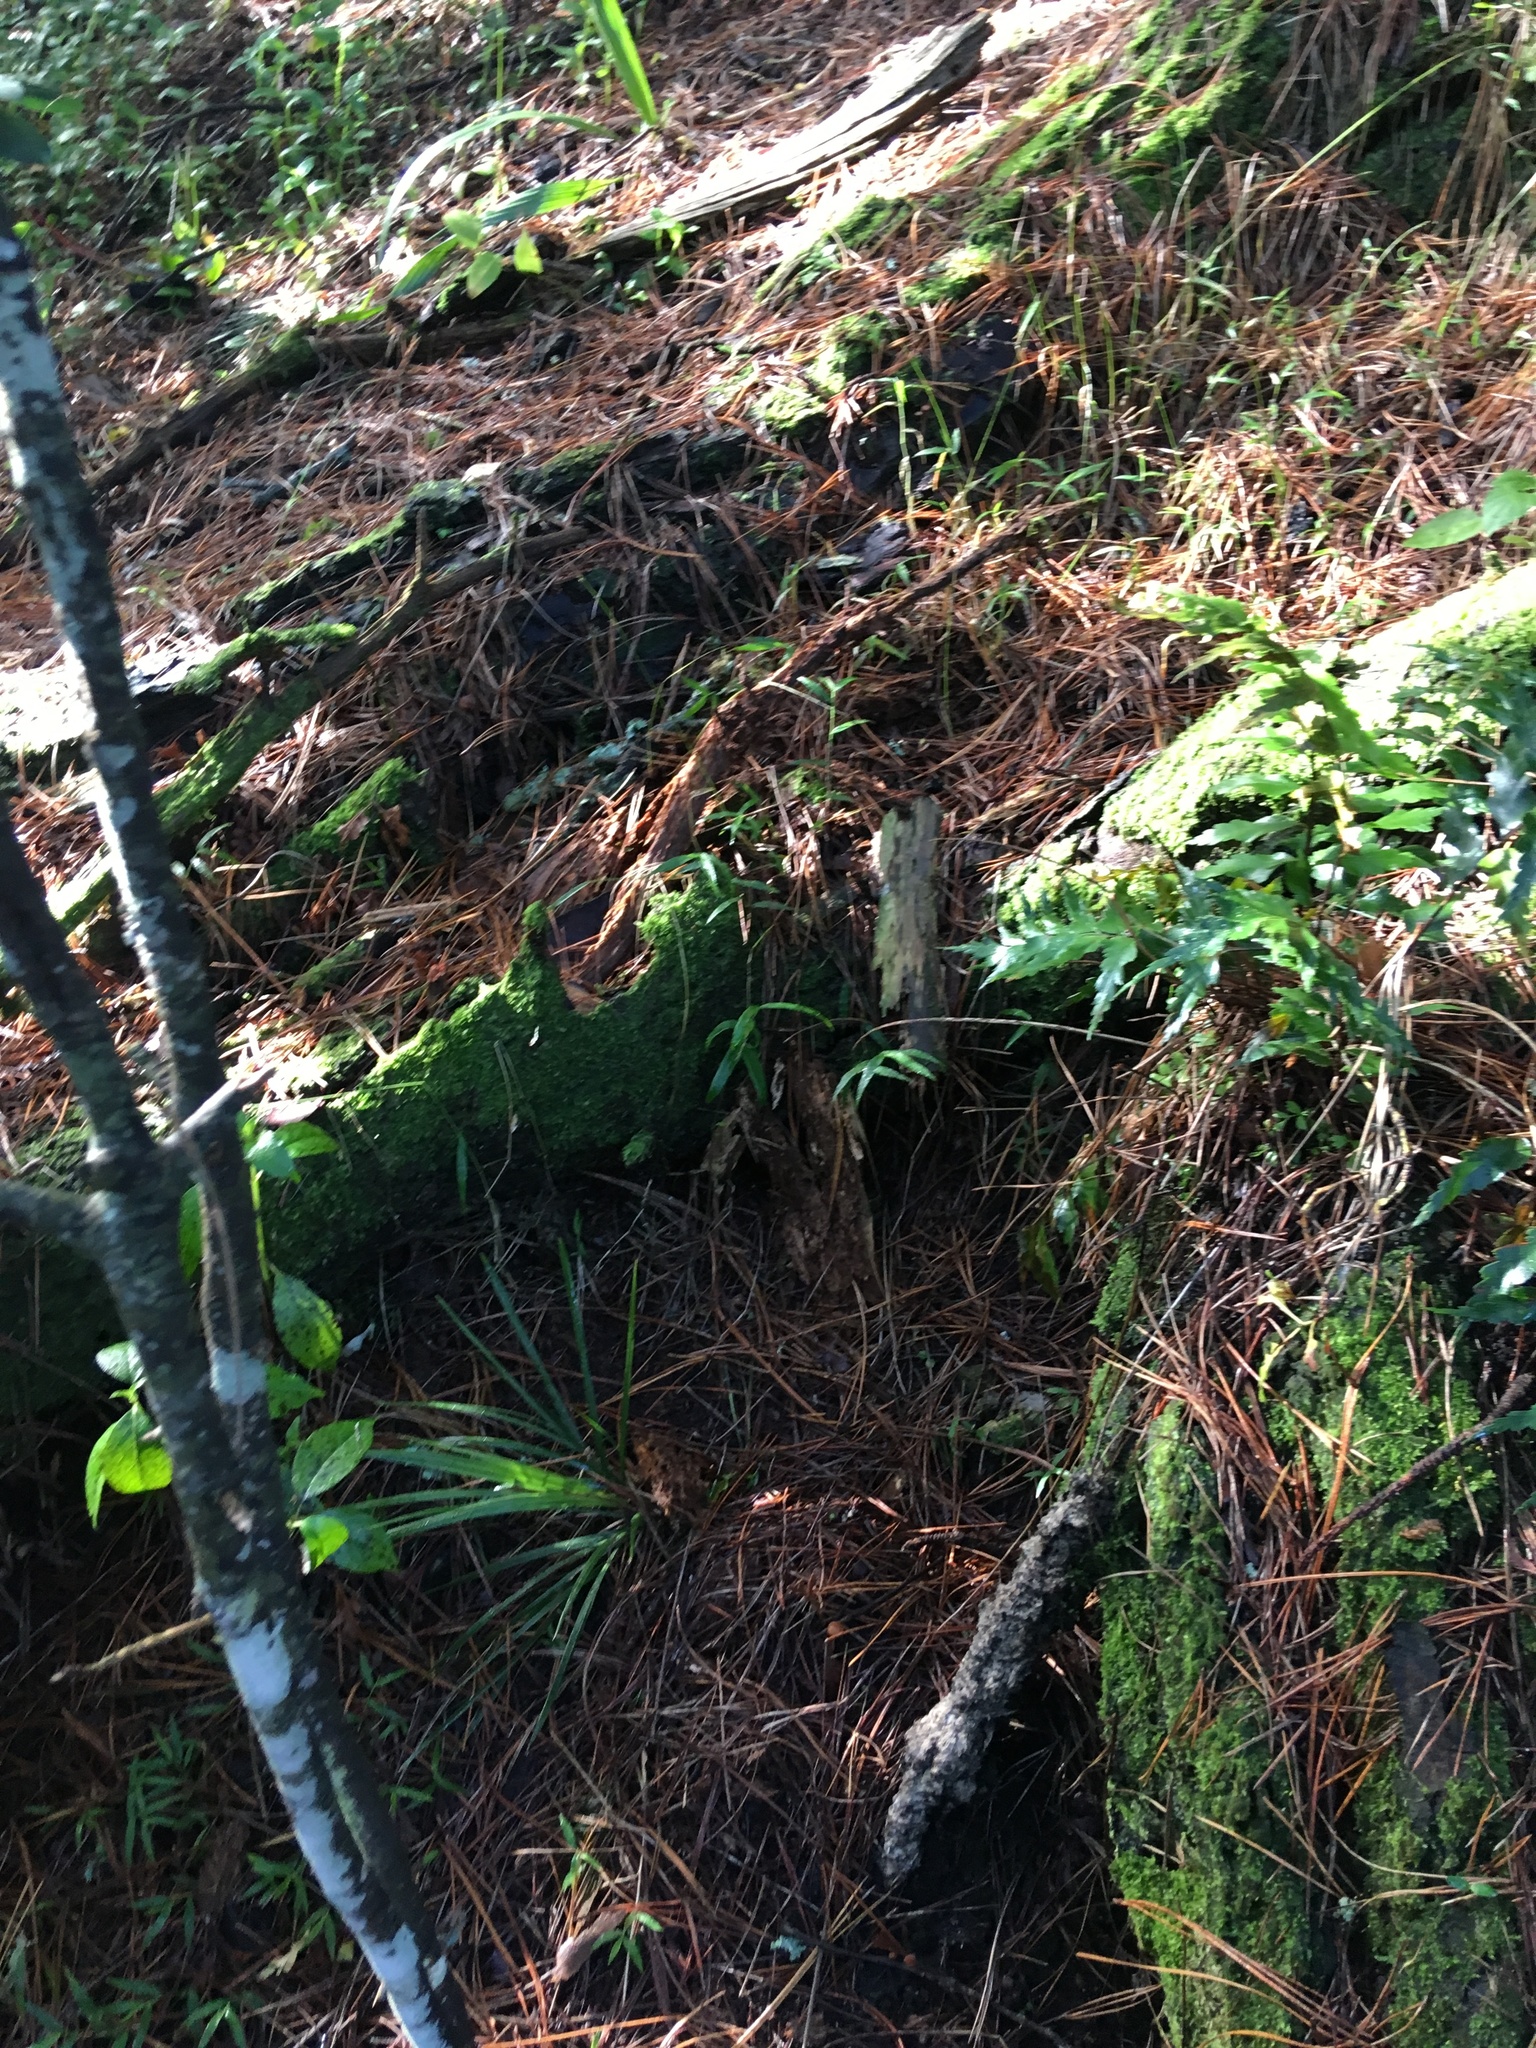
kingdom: Plantae
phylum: Tracheophyta
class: Polypodiopsida
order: Polypodiales
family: Aspleniaceae
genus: Asplenium
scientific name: Asplenium polyodon
